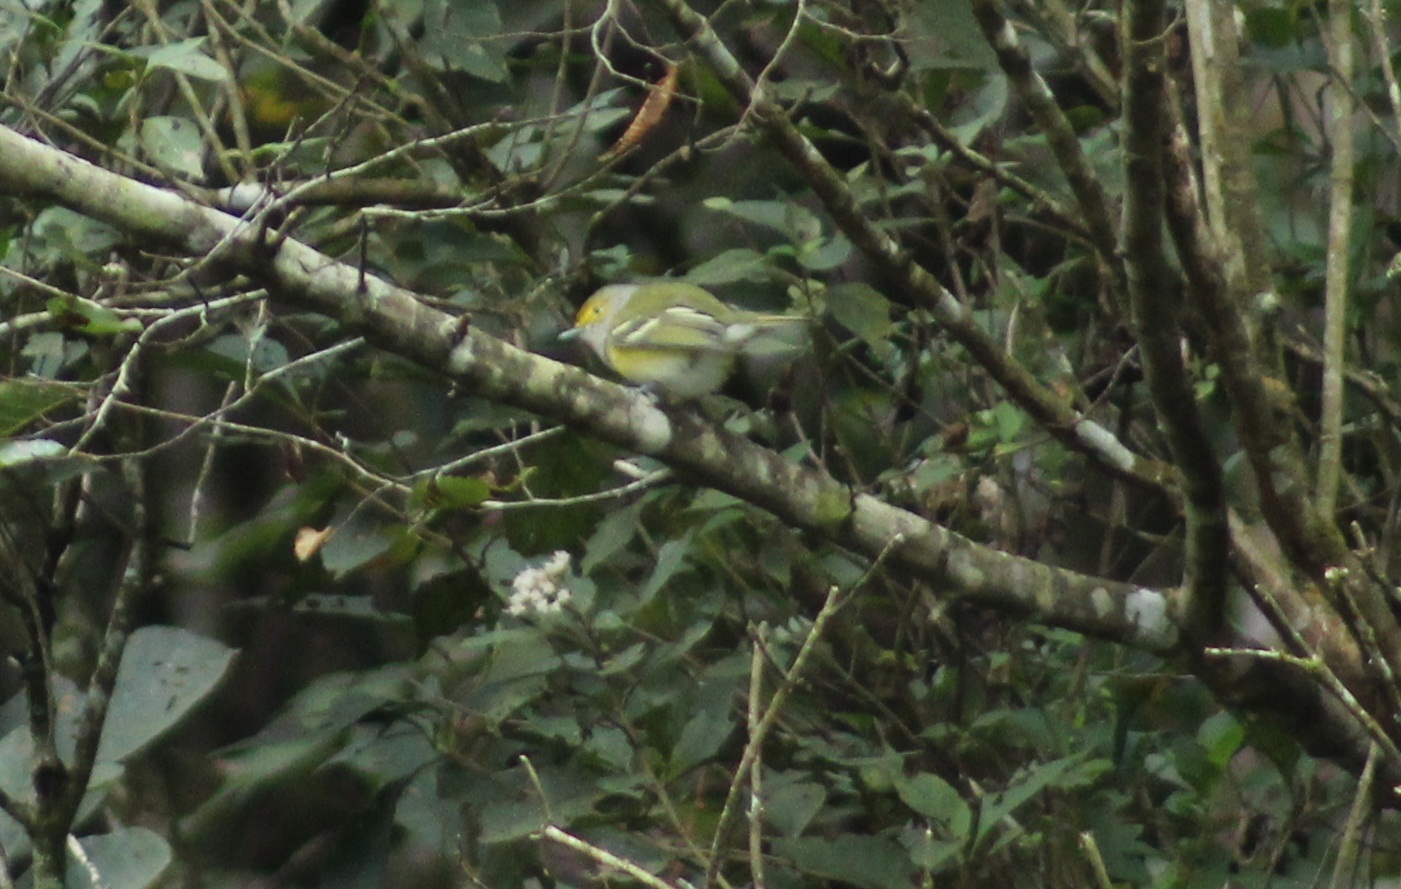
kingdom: Animalia
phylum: Chordata
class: Aves
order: Passeriformes
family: Vireonidae
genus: Vireo
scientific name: Vireo griseus
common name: White-eyed vireo
